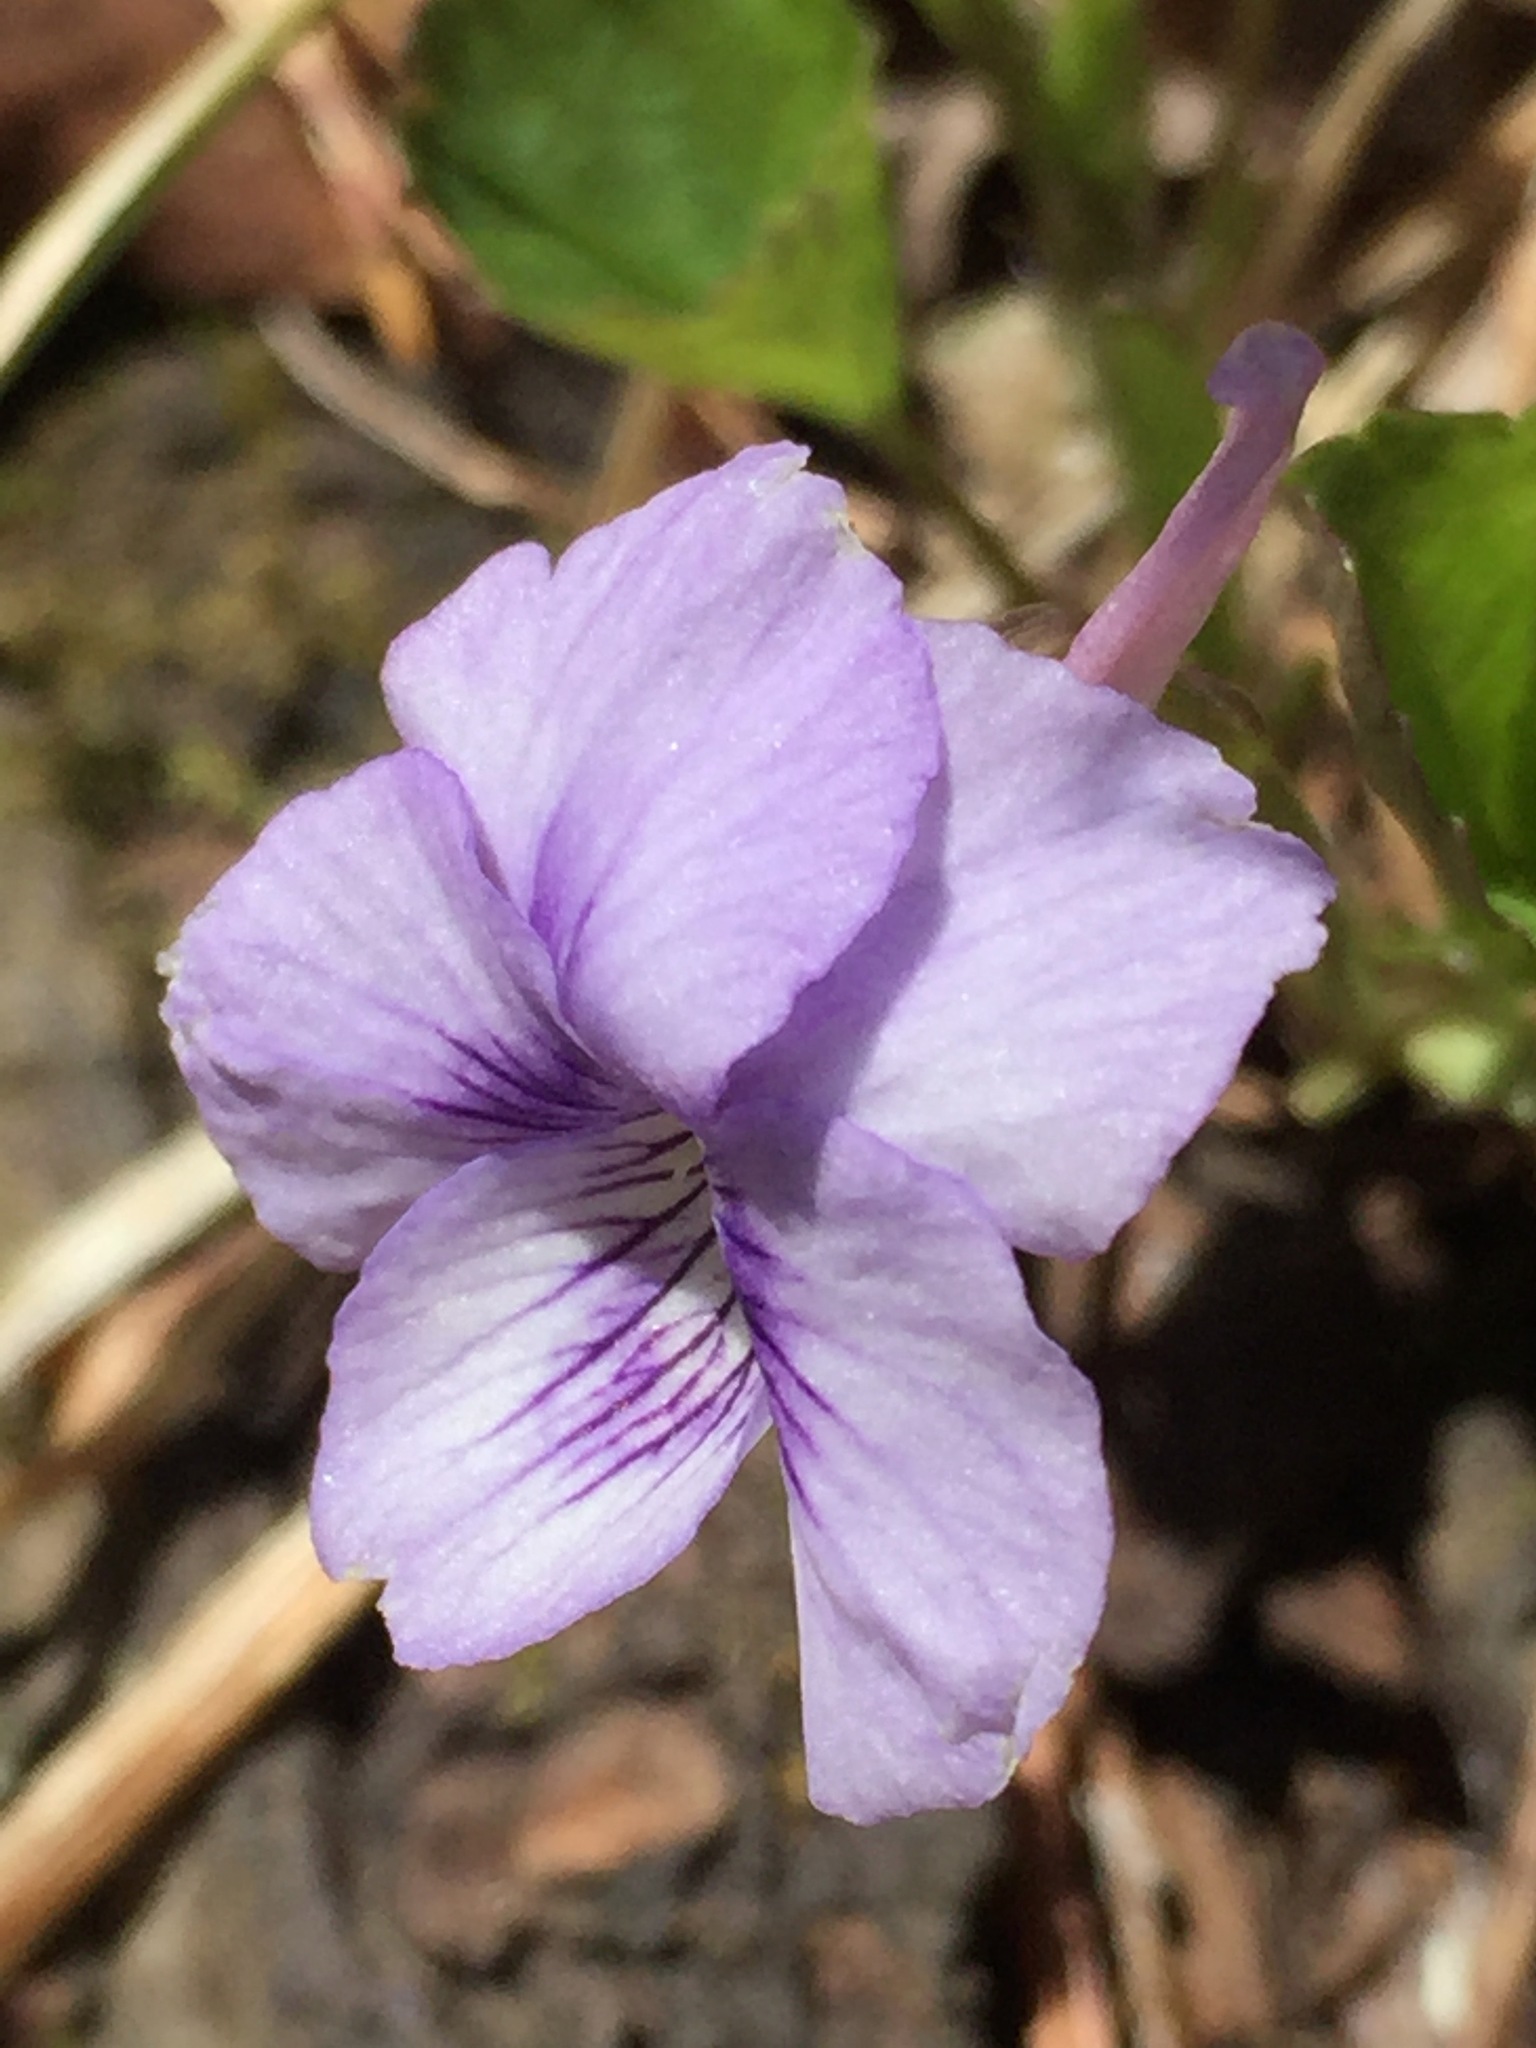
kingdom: Plantae
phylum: Tracheophyta
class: Magnoliopsida
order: Malpighiales
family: Violaceae
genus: Viola
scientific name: Viola rostrata
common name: Long-spur violet
